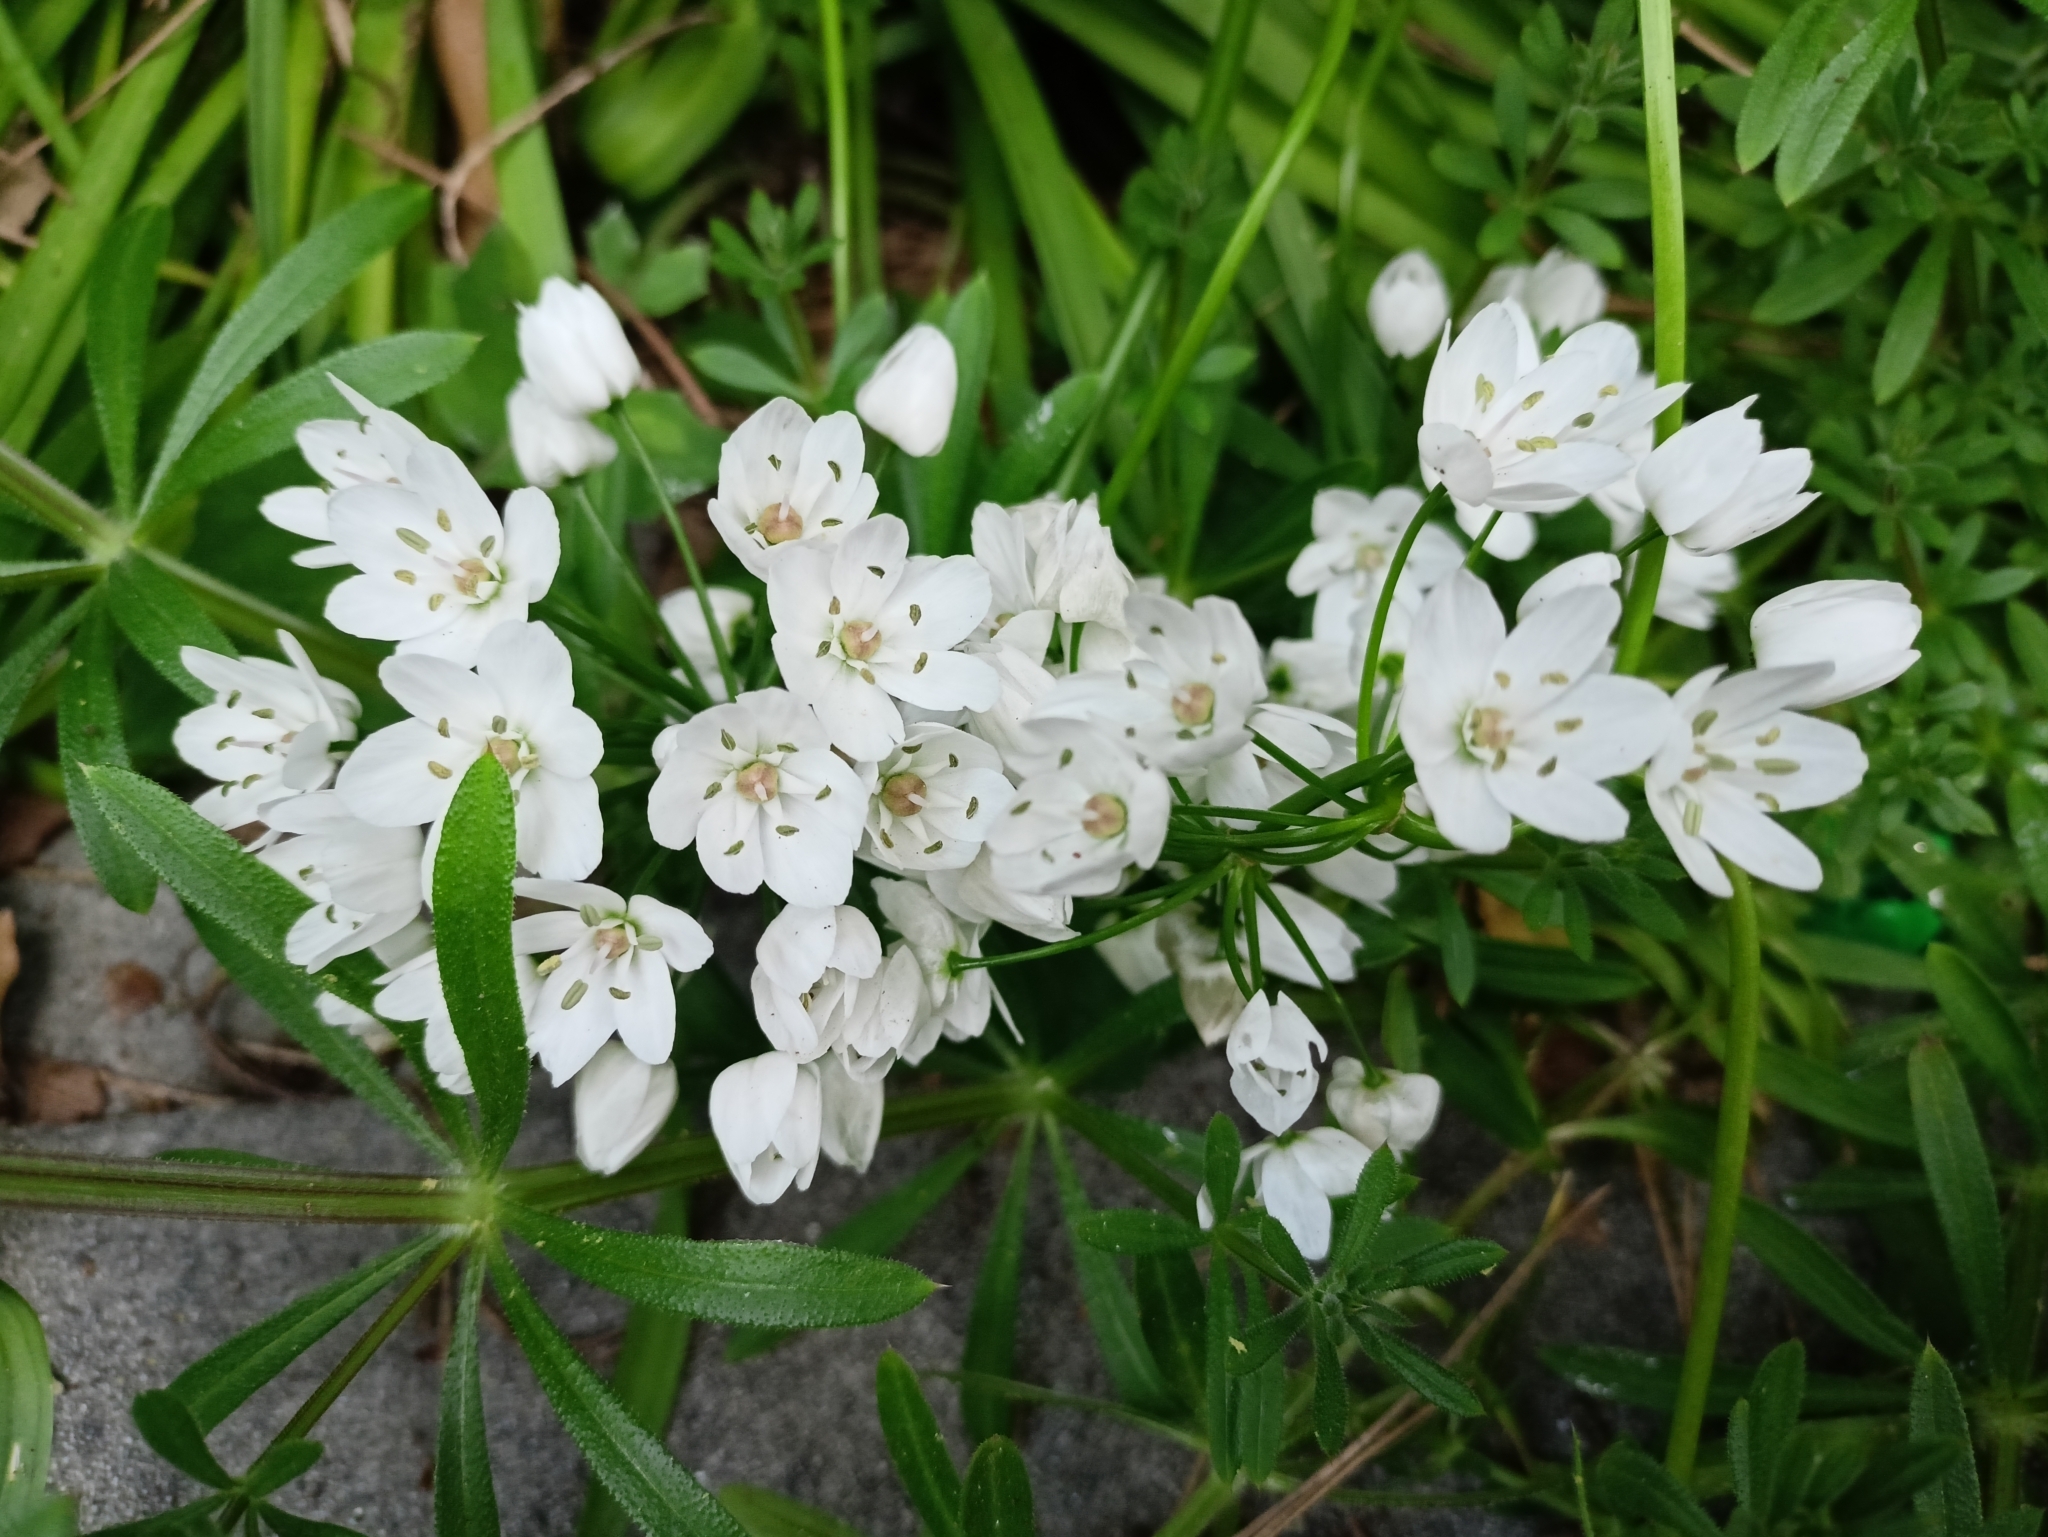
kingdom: Plantae
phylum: Tracheophyta
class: Liliopsida
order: Asparagales
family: Amaryllidaceae
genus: Allium
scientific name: Allium neapolitanum
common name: Neapolitan garlic
